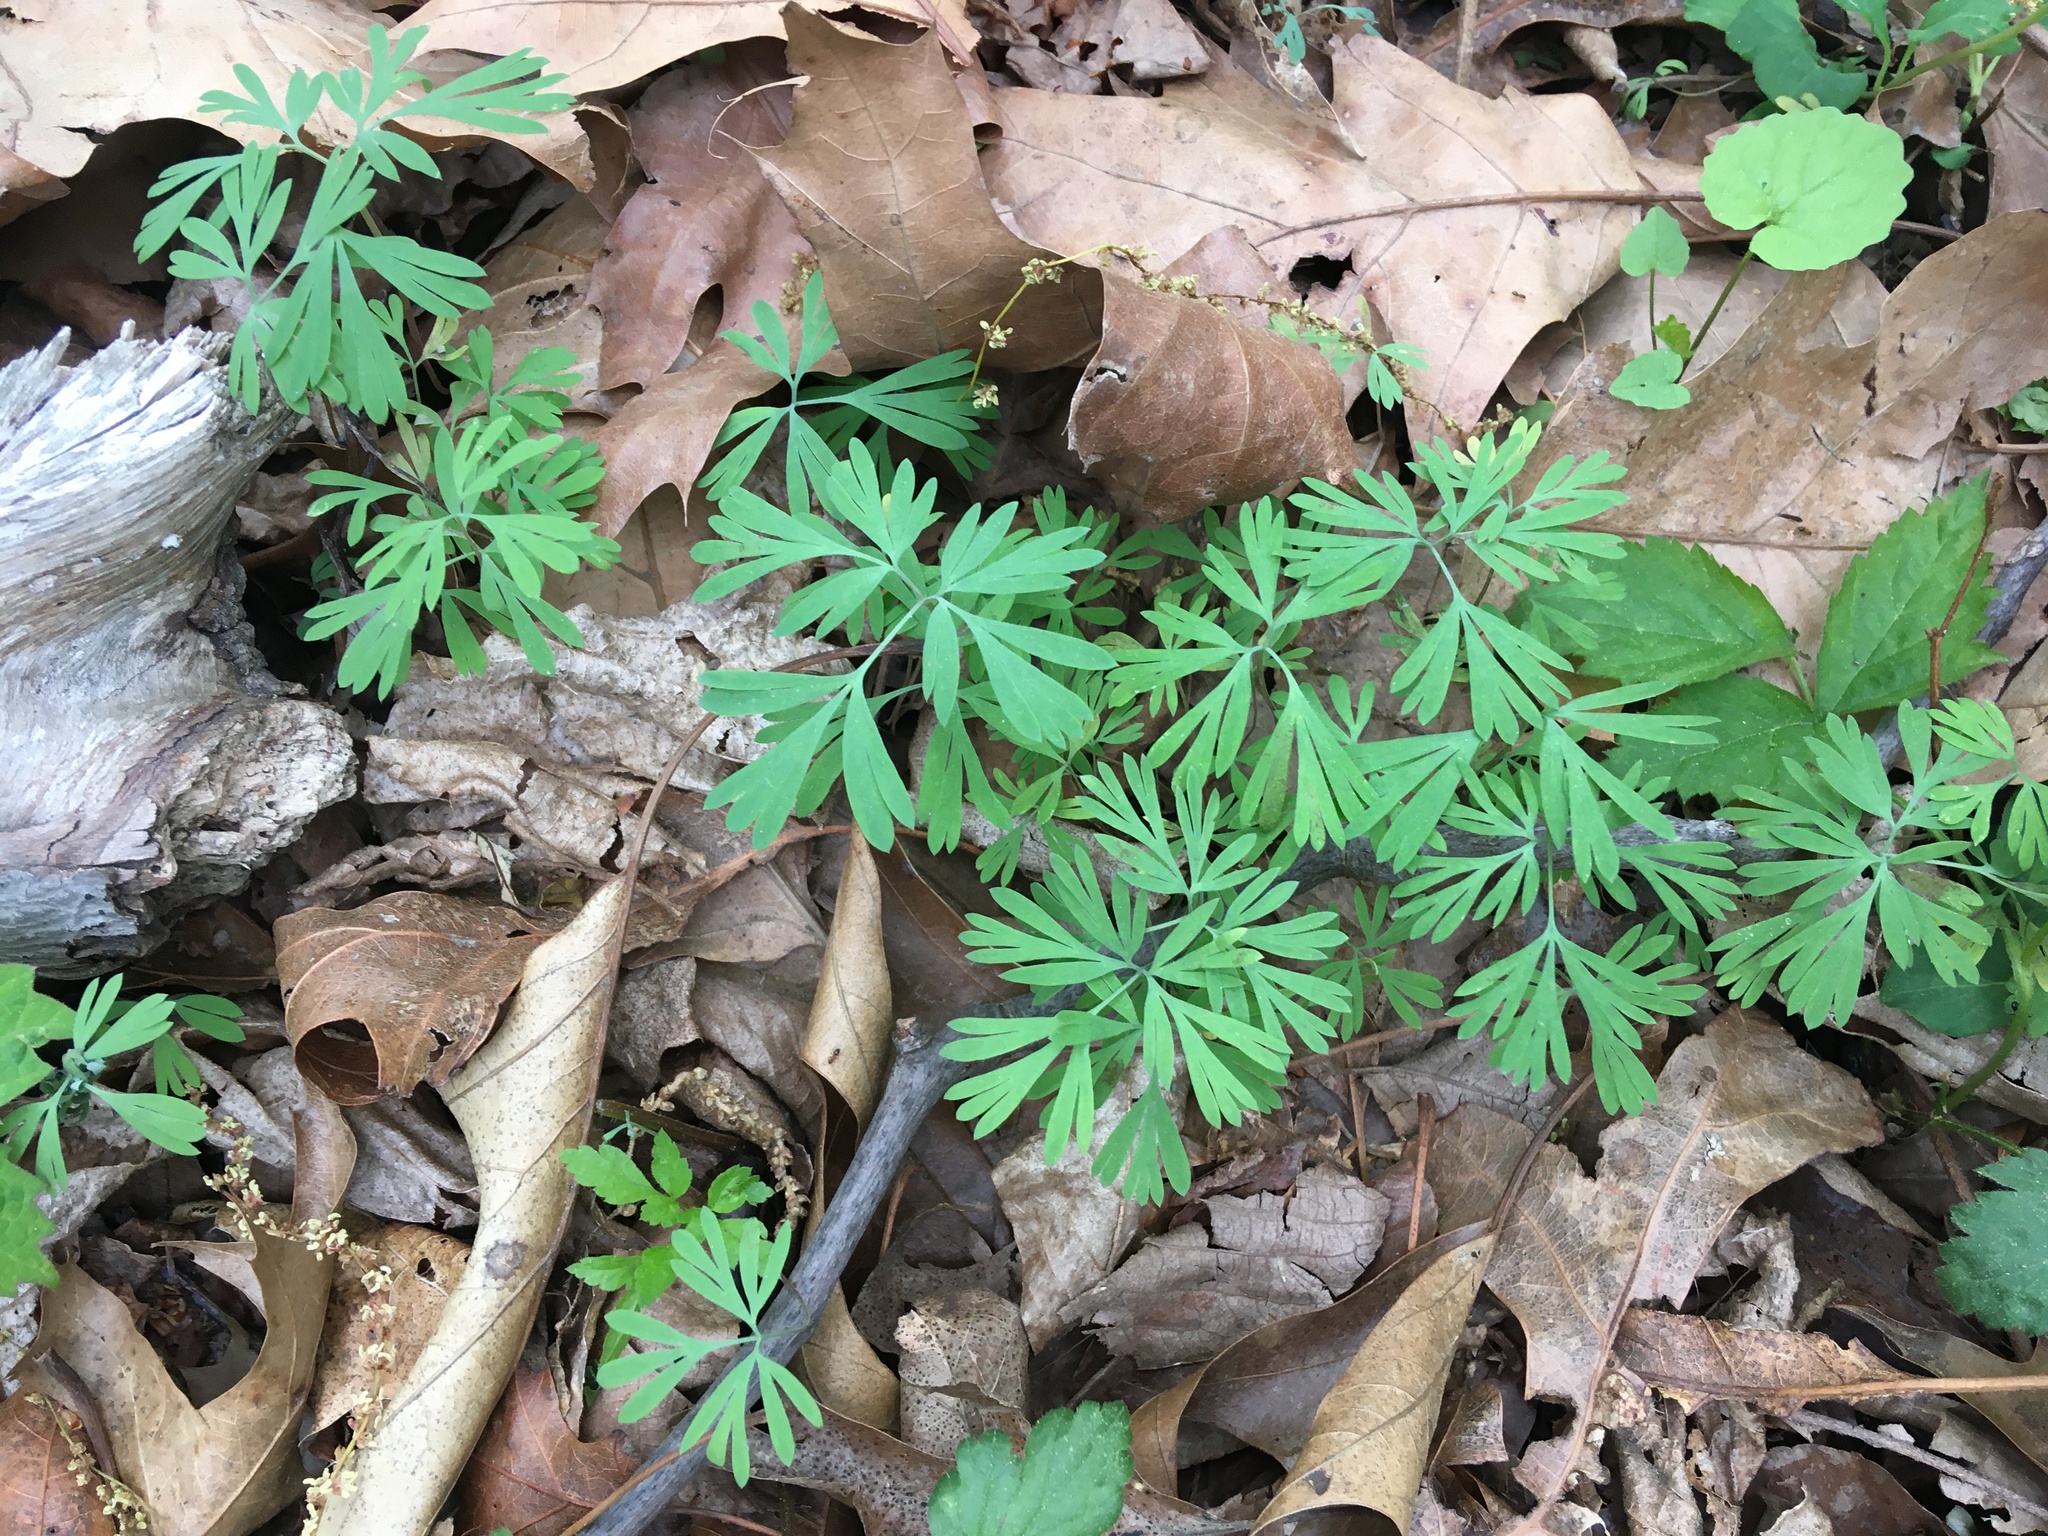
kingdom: Plantae
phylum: Tracheophyta
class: Magnoliopsida
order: Ranunculales
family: Papaveraceae
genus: Dicentra
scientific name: Dicentra cucullaria
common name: Dutchman's breeches
